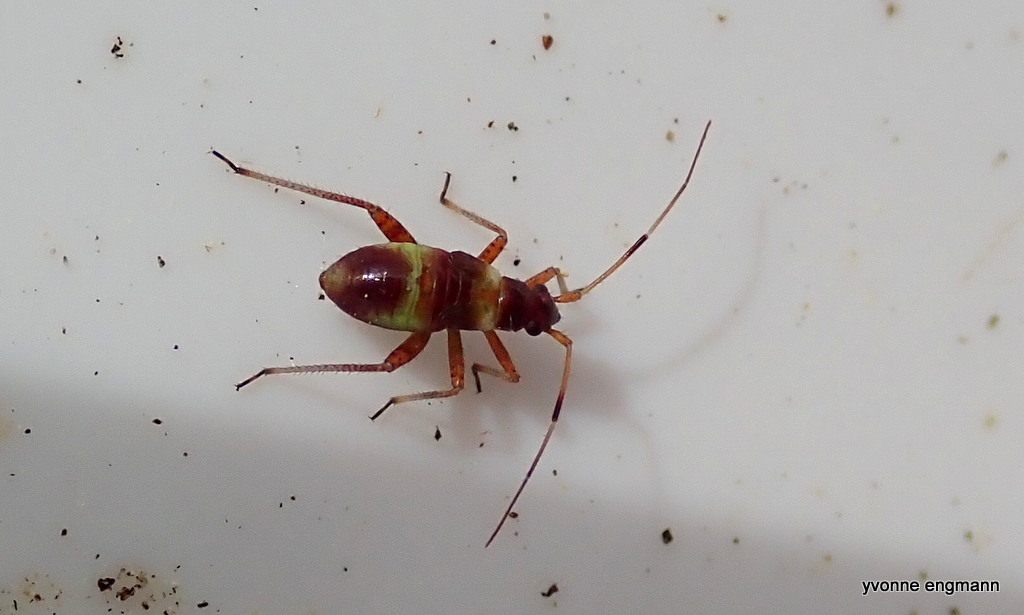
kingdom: Animalia
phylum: Arthropoda
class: Insecta
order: Hemiptera
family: Miridae
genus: Closterotomus
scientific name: Closterotomus fulvomaculatus
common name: Spotted plant bug
